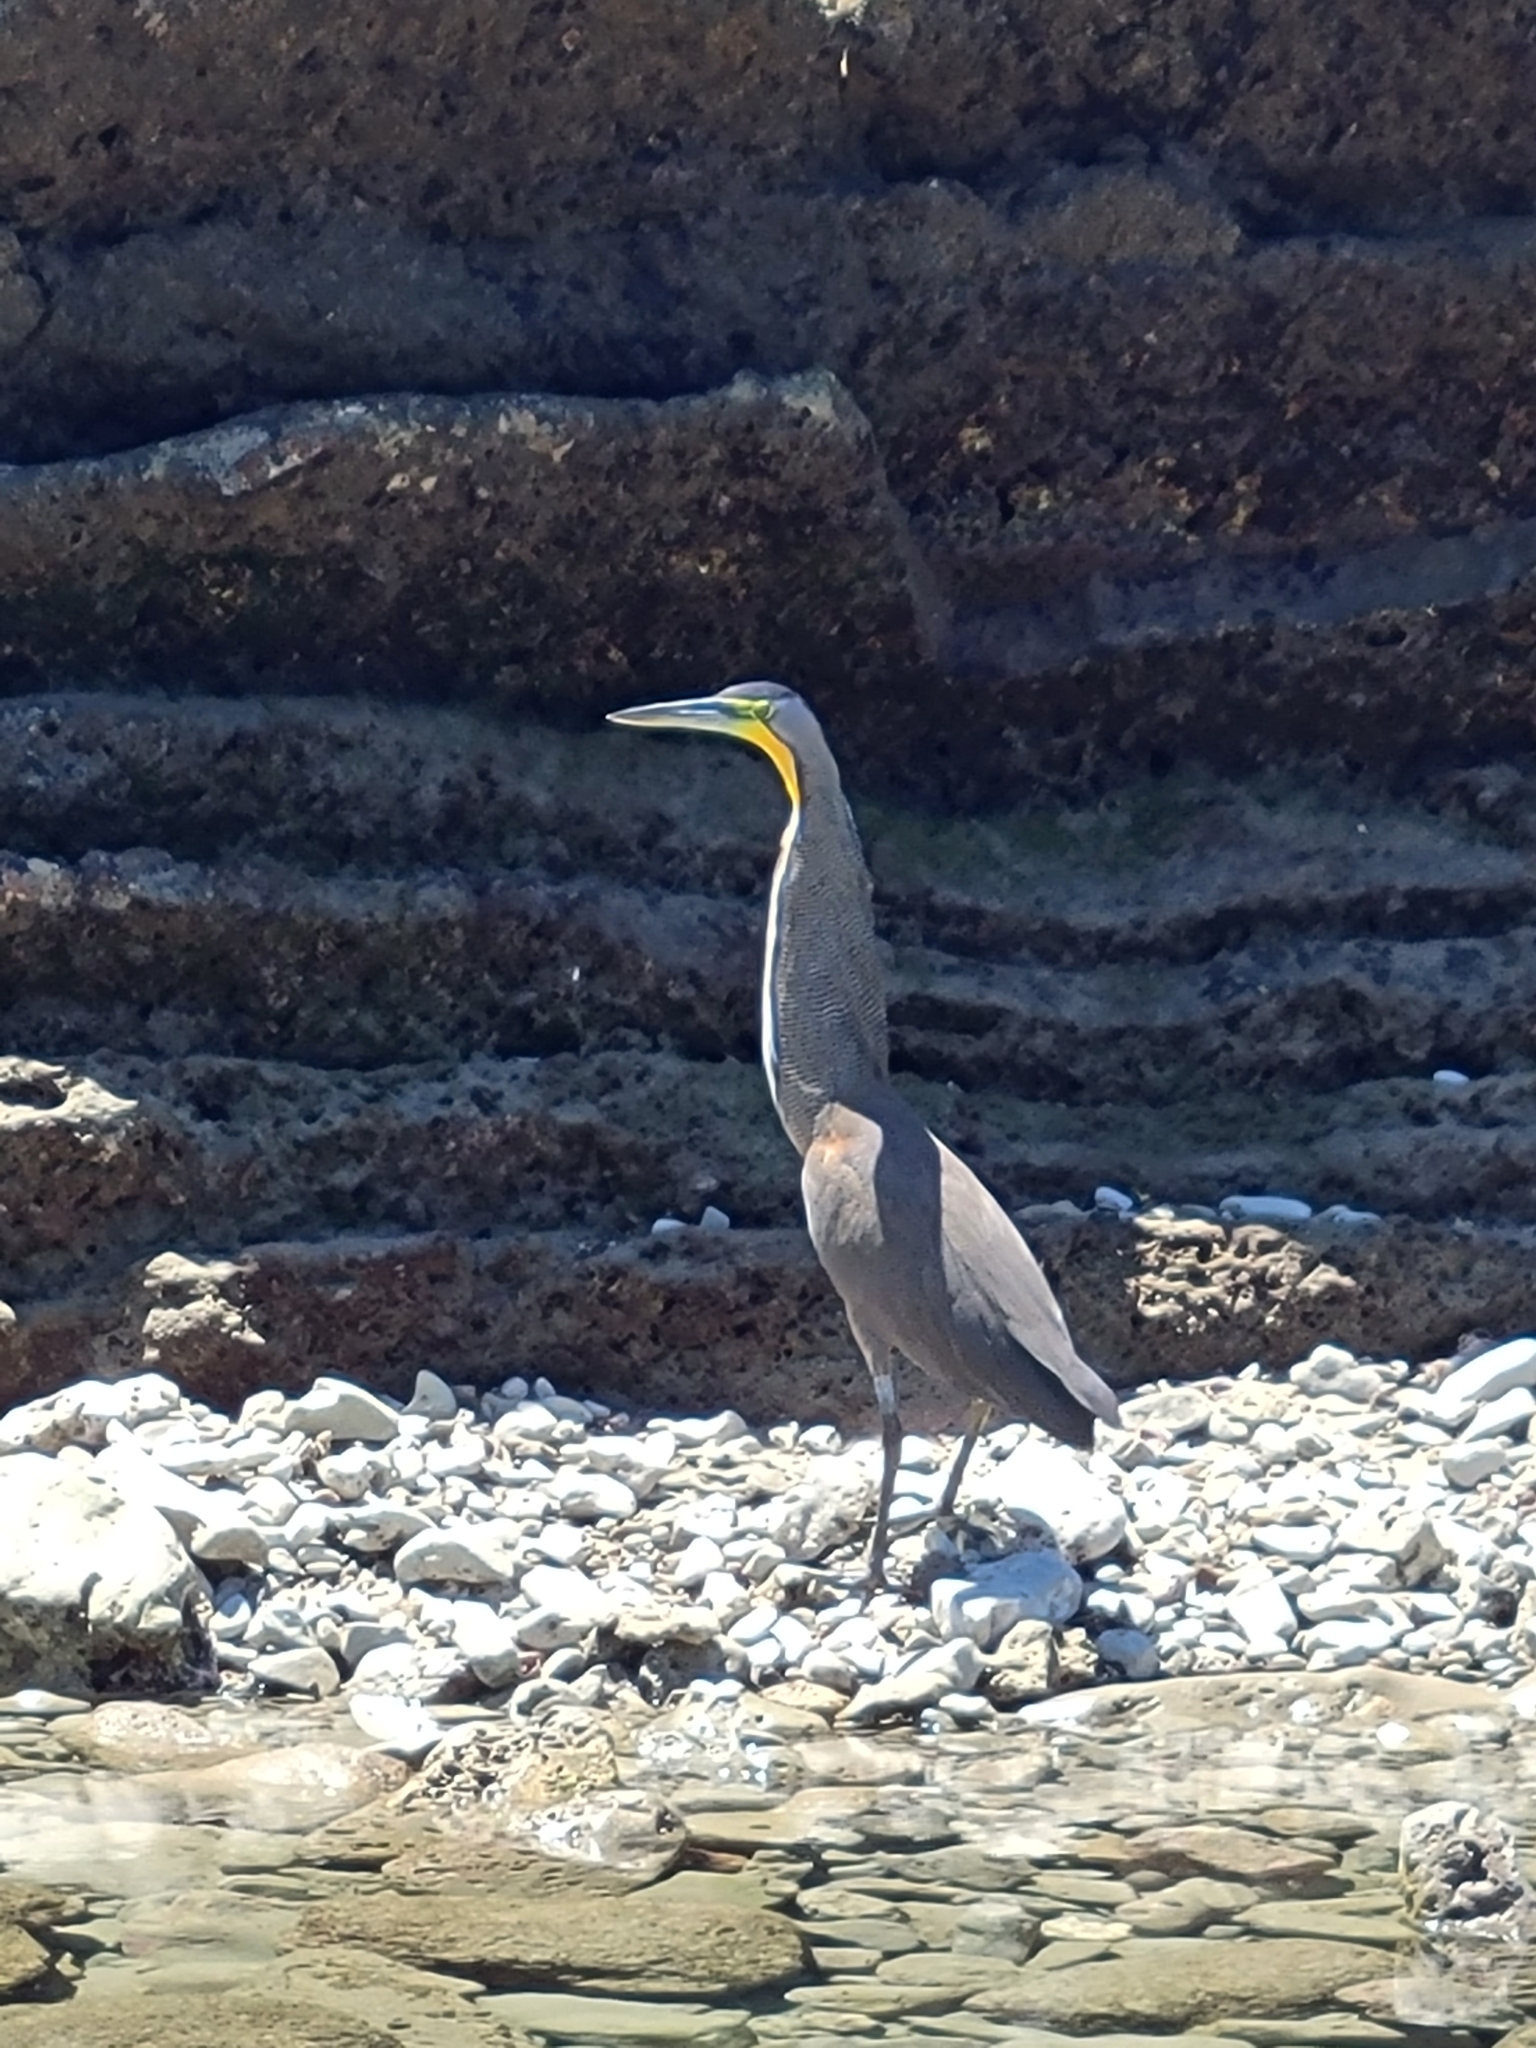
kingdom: Animalia
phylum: Chordata
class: Aves
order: Pelecaniformes
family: Ardeidae
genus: Tigrisoma
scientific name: Tigrisoma mexicanum
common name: Bare-throated tiger-heron
